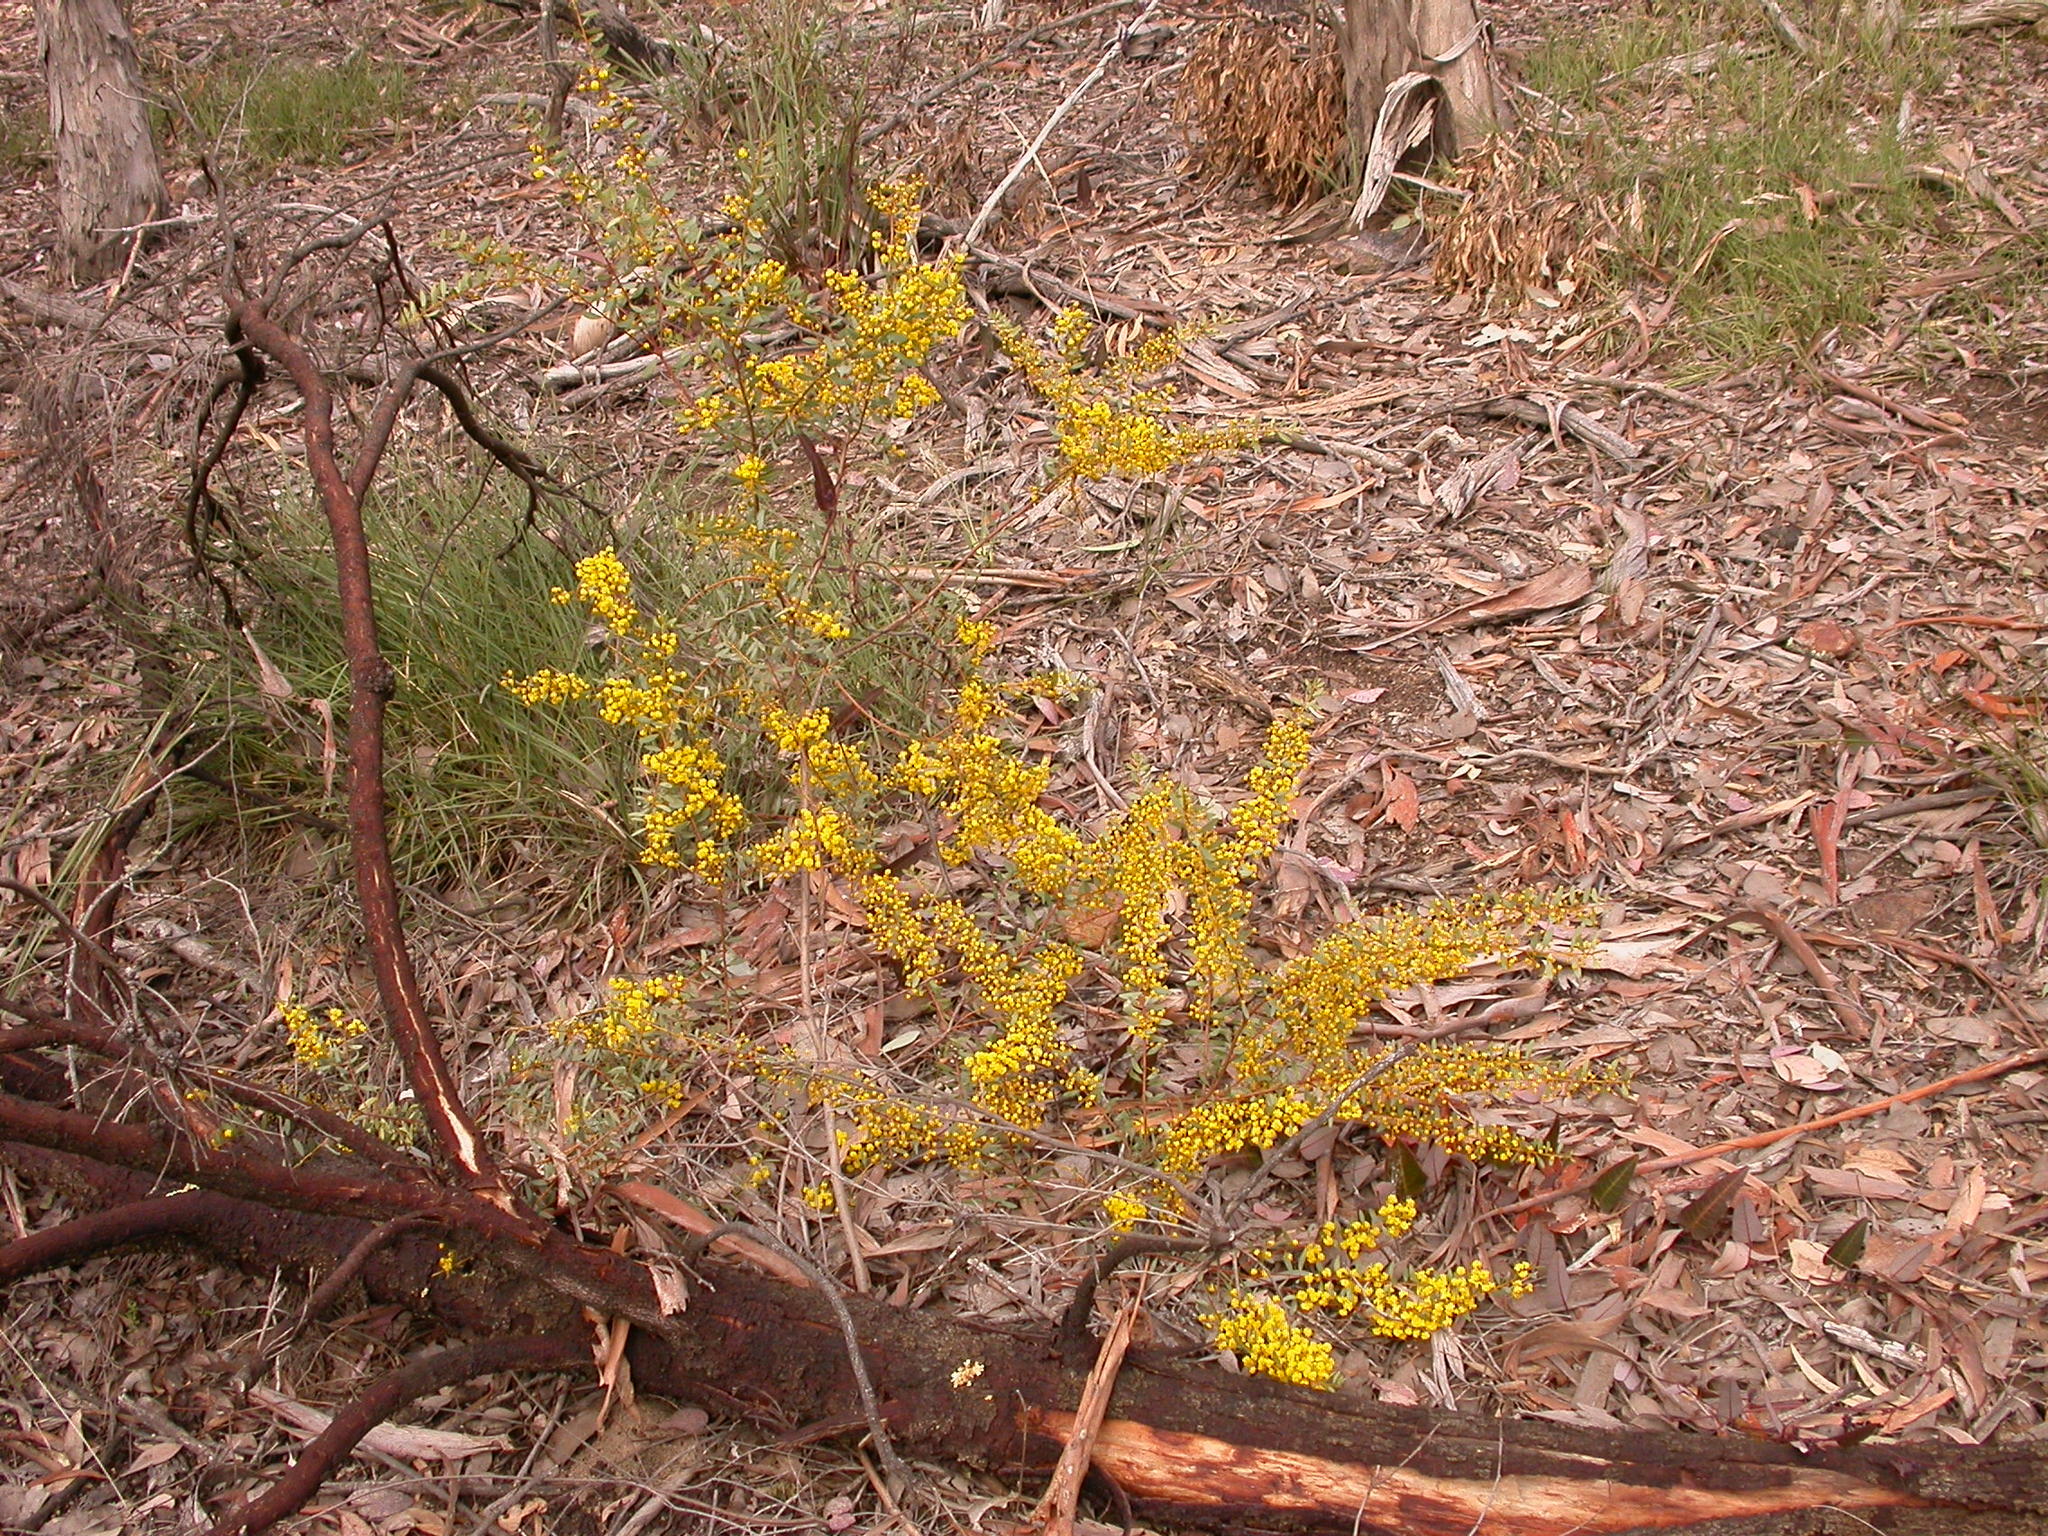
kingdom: Plantae
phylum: Tracheophyta
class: Magnoliopsida
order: Fabales
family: Fabaceae
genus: Acacia
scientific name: Acacia buxifolia
